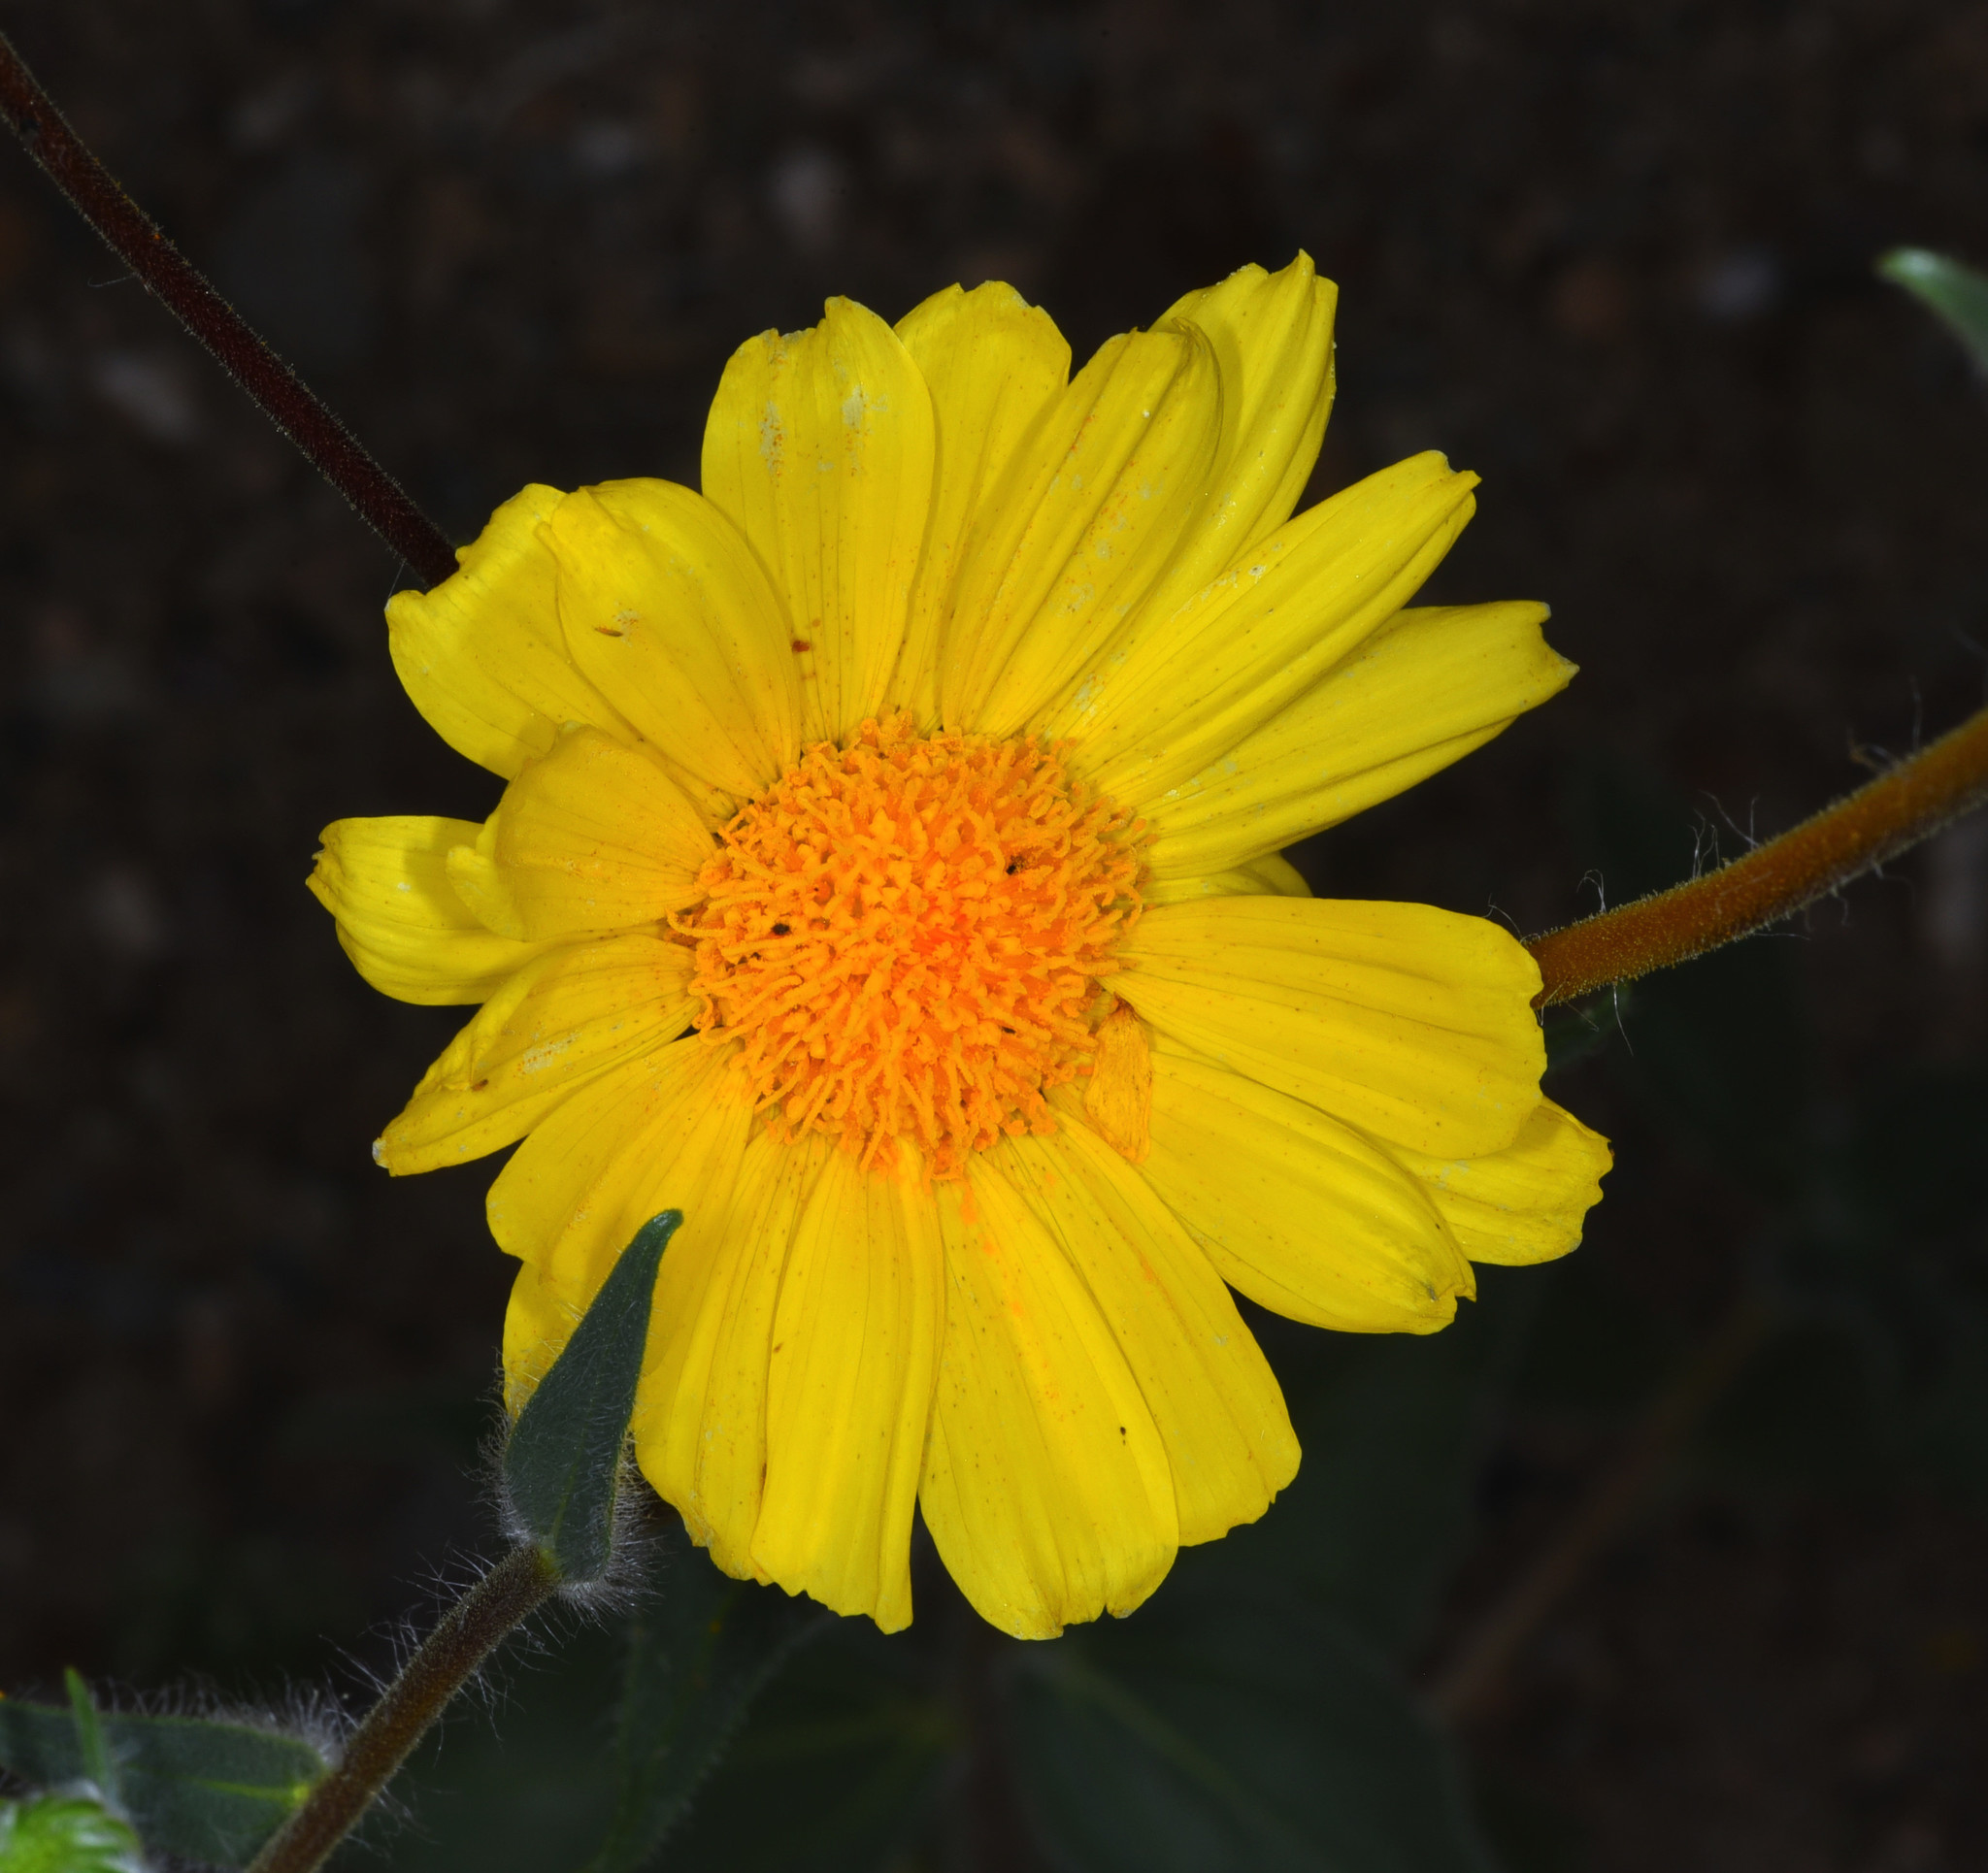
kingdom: Plantae
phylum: Tracheophyta
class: Magnoliopsida
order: Asterales
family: Asteraceae
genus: Geraea
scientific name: Geraea canescens
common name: Desert-gold
